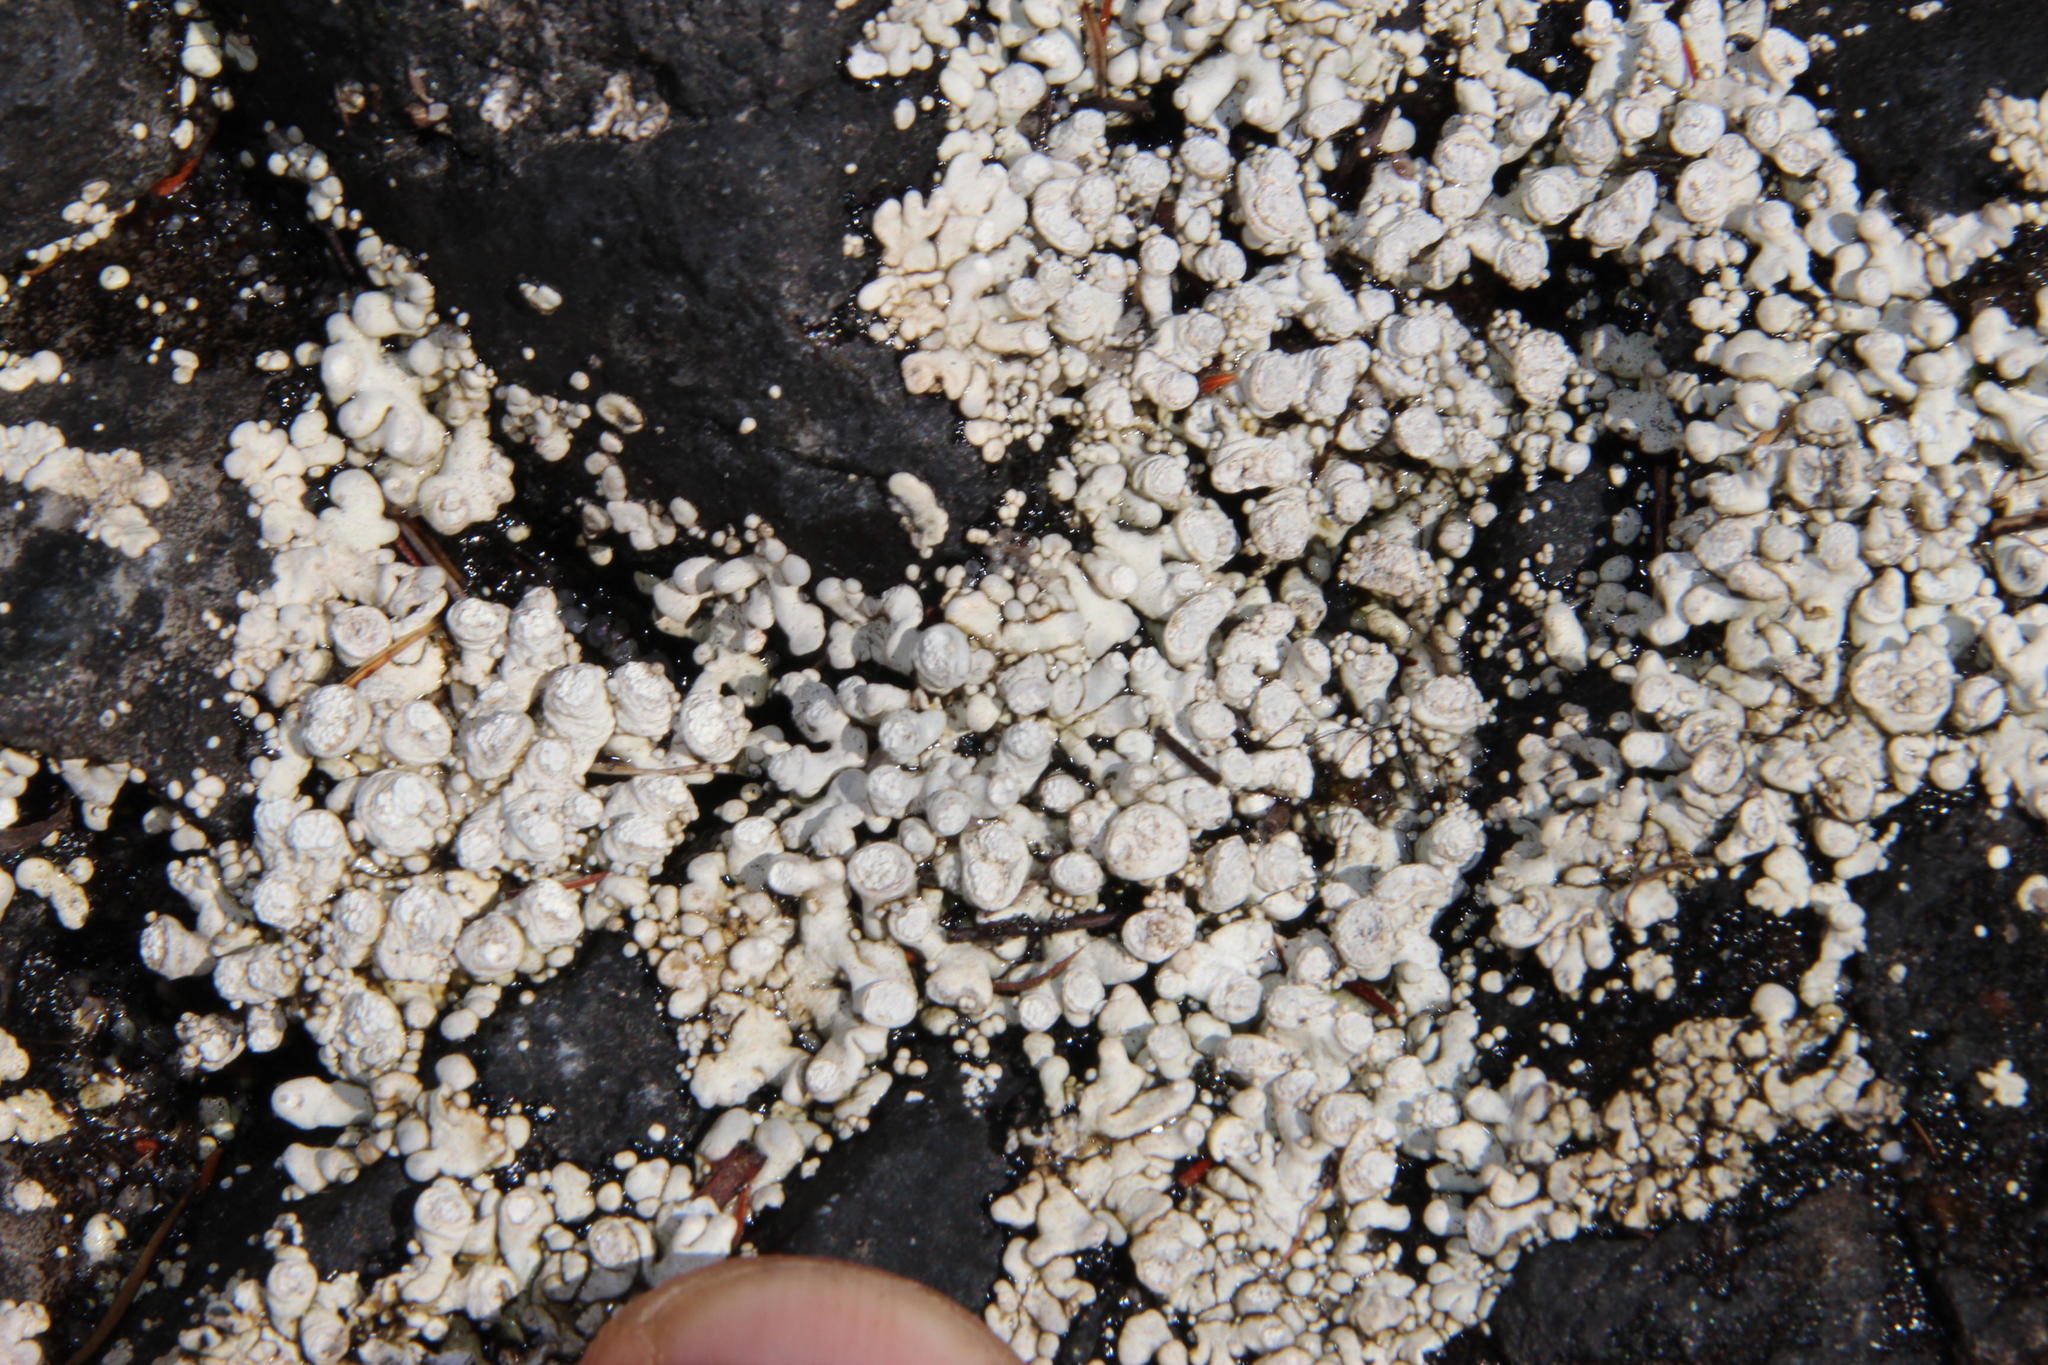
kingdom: Fungi
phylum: Ascomycota
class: Lecanoromycetes
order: Pertusariales
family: Icmadophilaceae
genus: Siphula
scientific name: Siphula verrucigera
